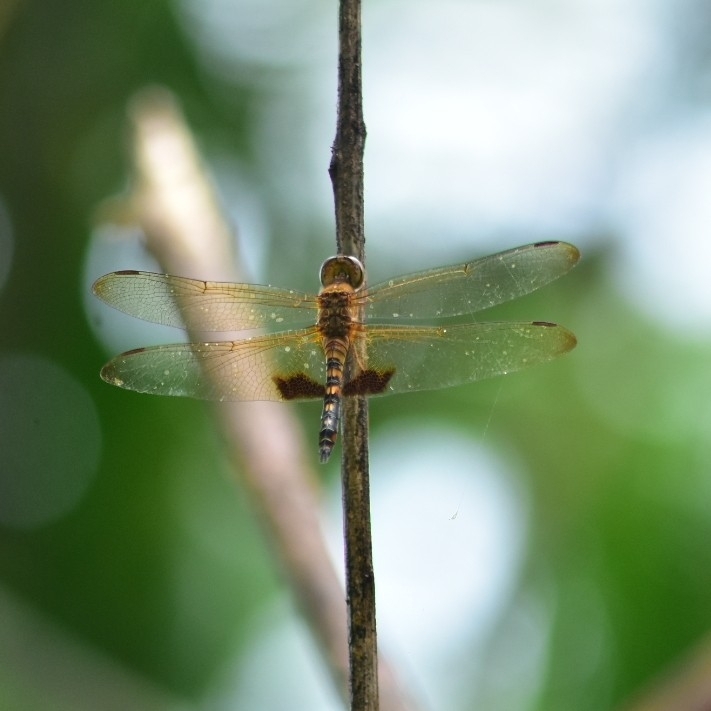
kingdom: Animalia
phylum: Arthropoda
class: Insecta
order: Odonata
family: Libellulidae
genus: Hydrobasileus
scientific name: Hydrobasileus croceus
